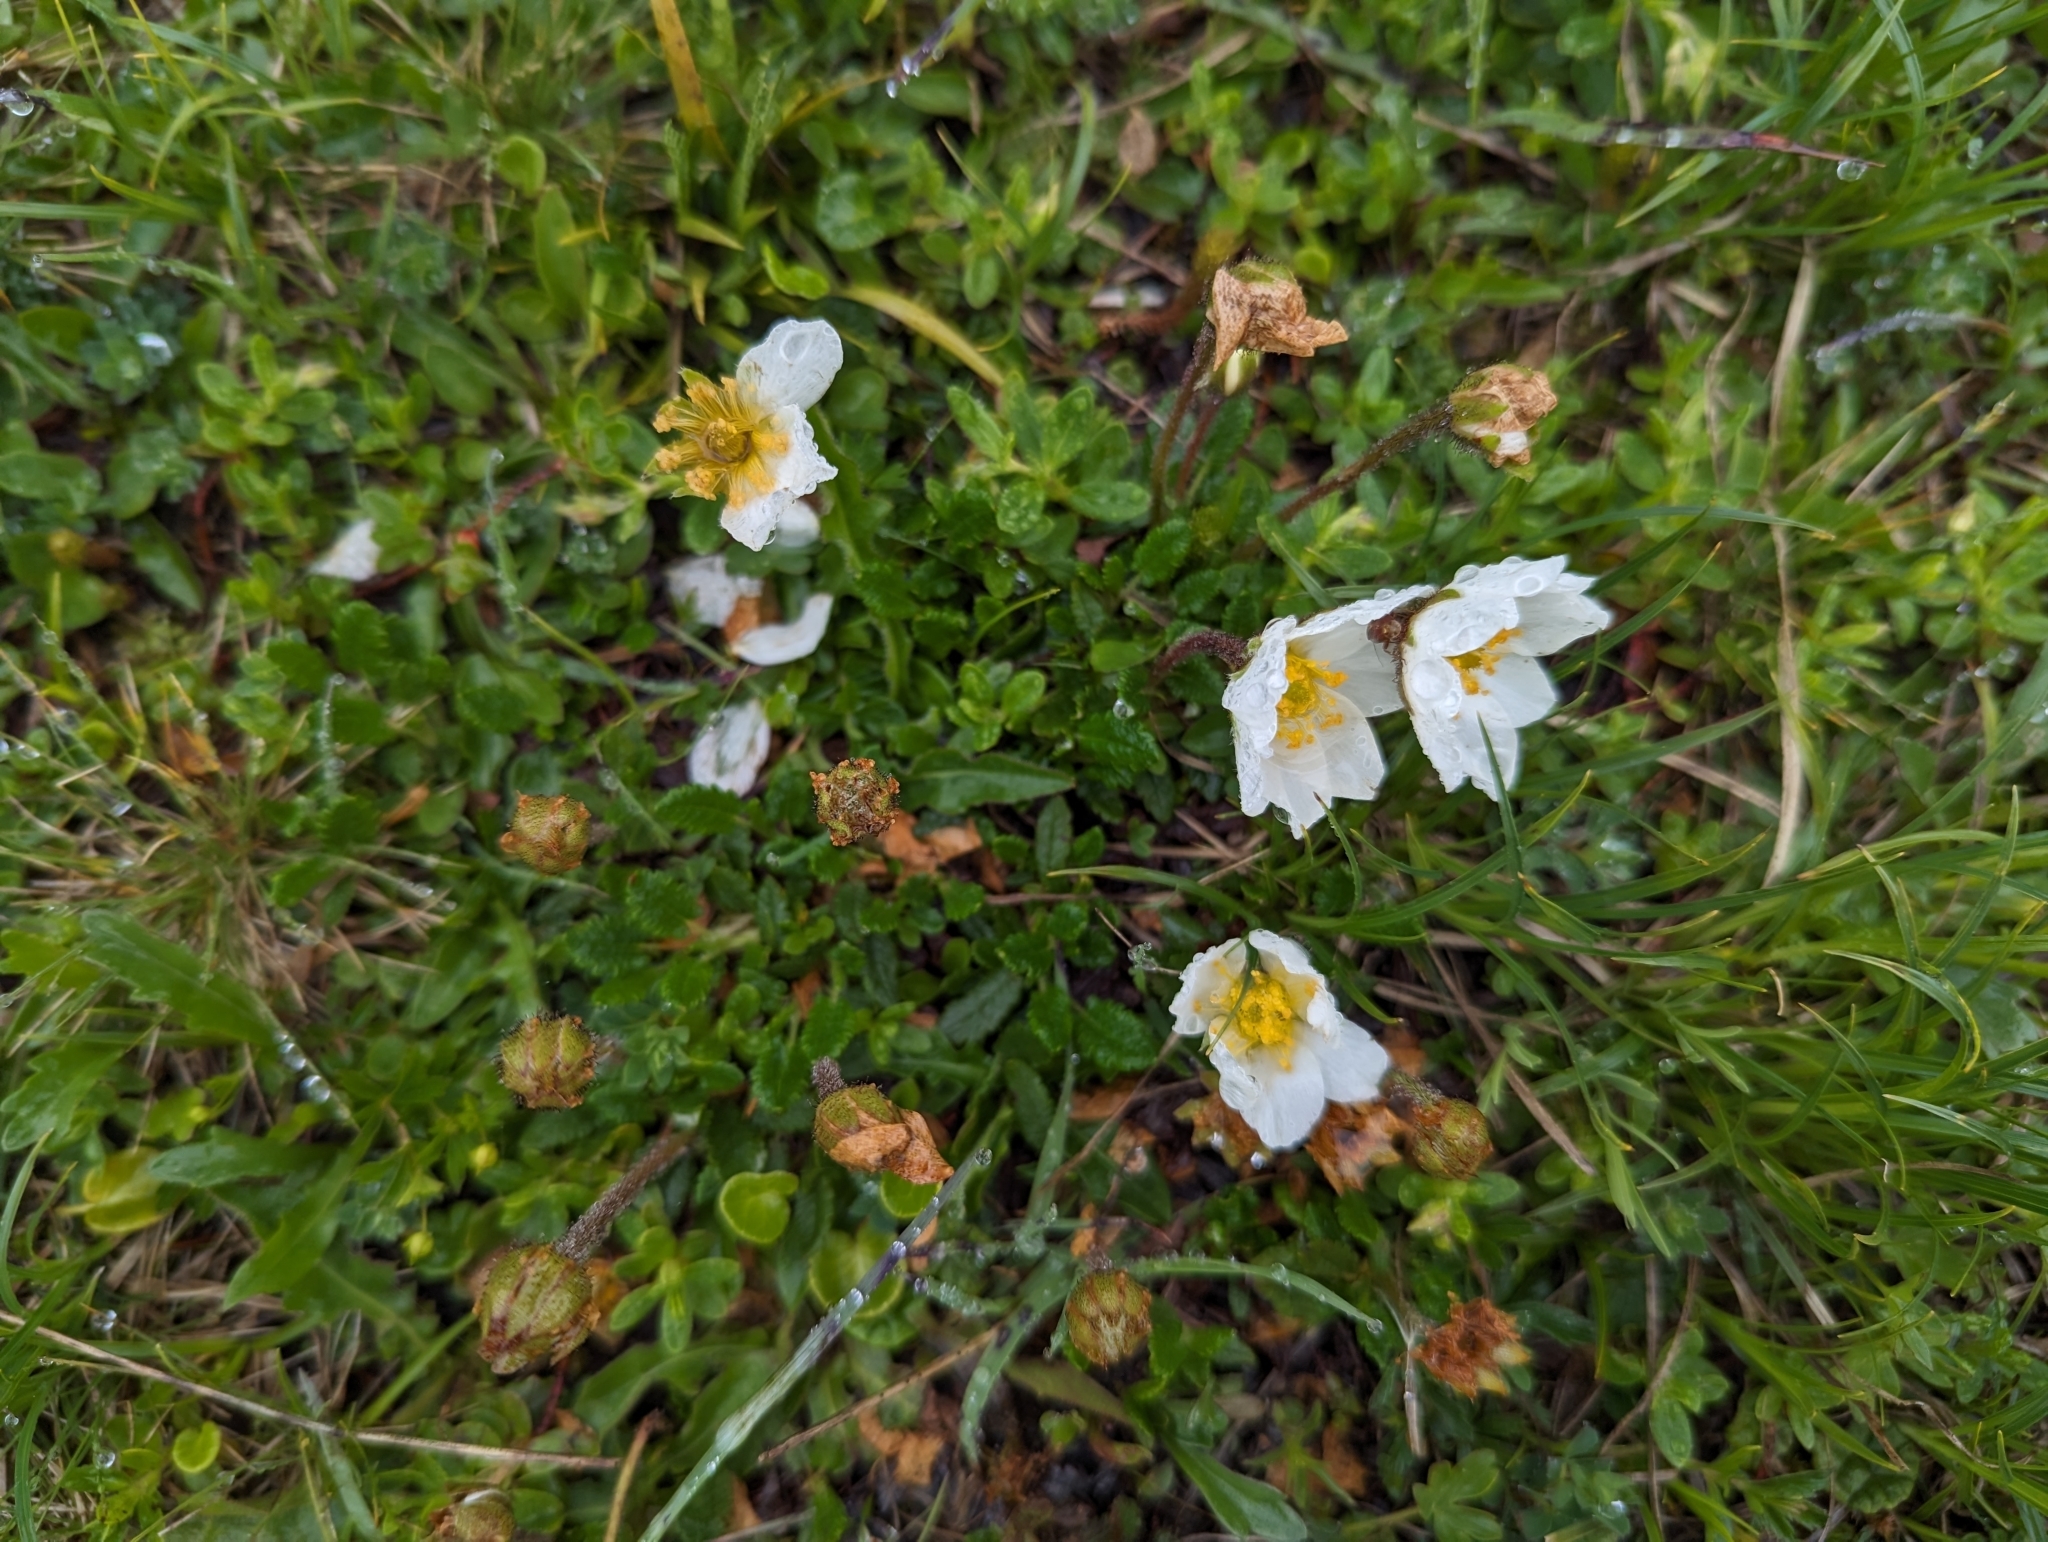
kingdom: Plantae
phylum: Tracheophyta
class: Magnoliopsida
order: Rosales
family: Rosaceae
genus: Dryas
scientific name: Dryas octopetala
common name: Eight-petal mountain-avens
